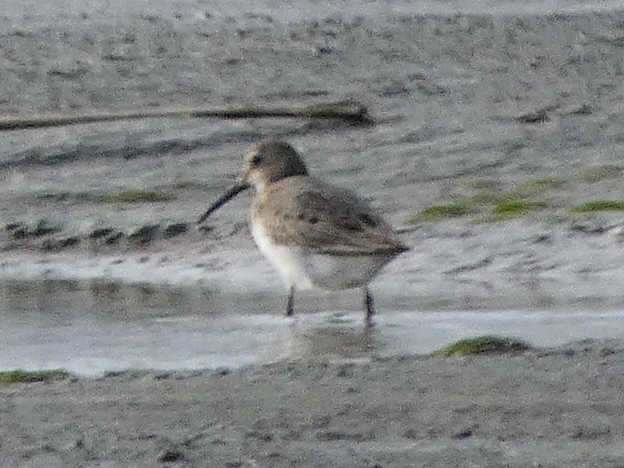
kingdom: Animalia
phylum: Chordata
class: Aves
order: Charadriiformes
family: Scolopacidae
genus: Calidris
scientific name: Calidris alpina
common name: Dunlin
